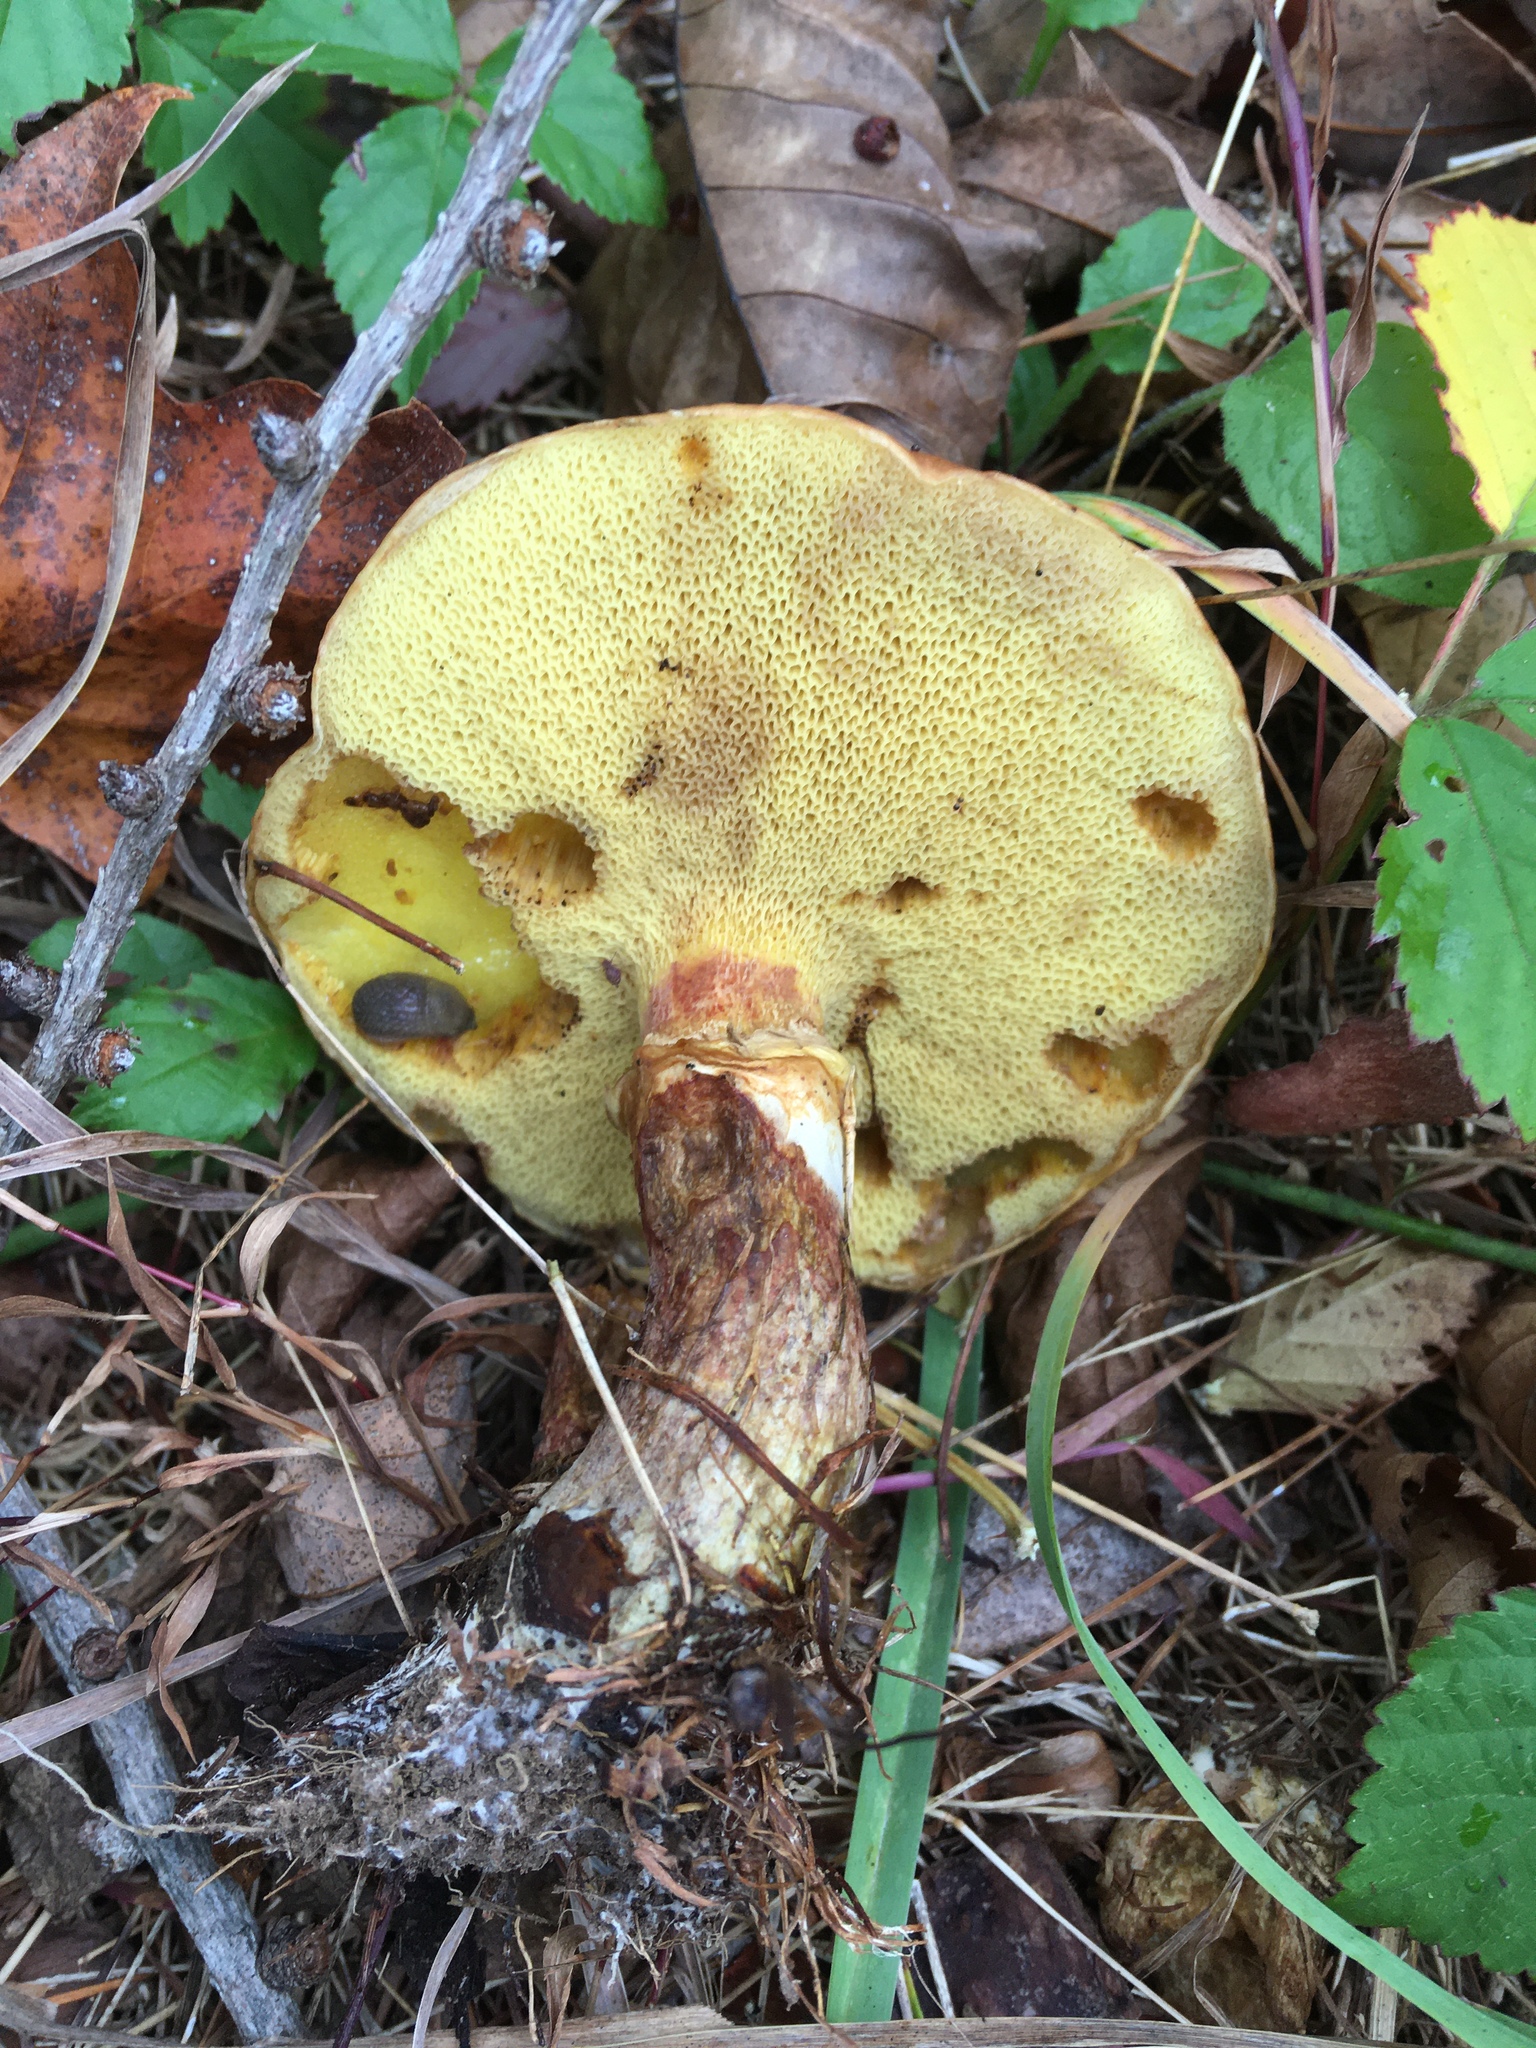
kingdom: Fungi
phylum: Basidiomycota
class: Agaricomycetes
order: Boletales
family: Suillaceae
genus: Suillus
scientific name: Suillus grevillei
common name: Larch bolete
